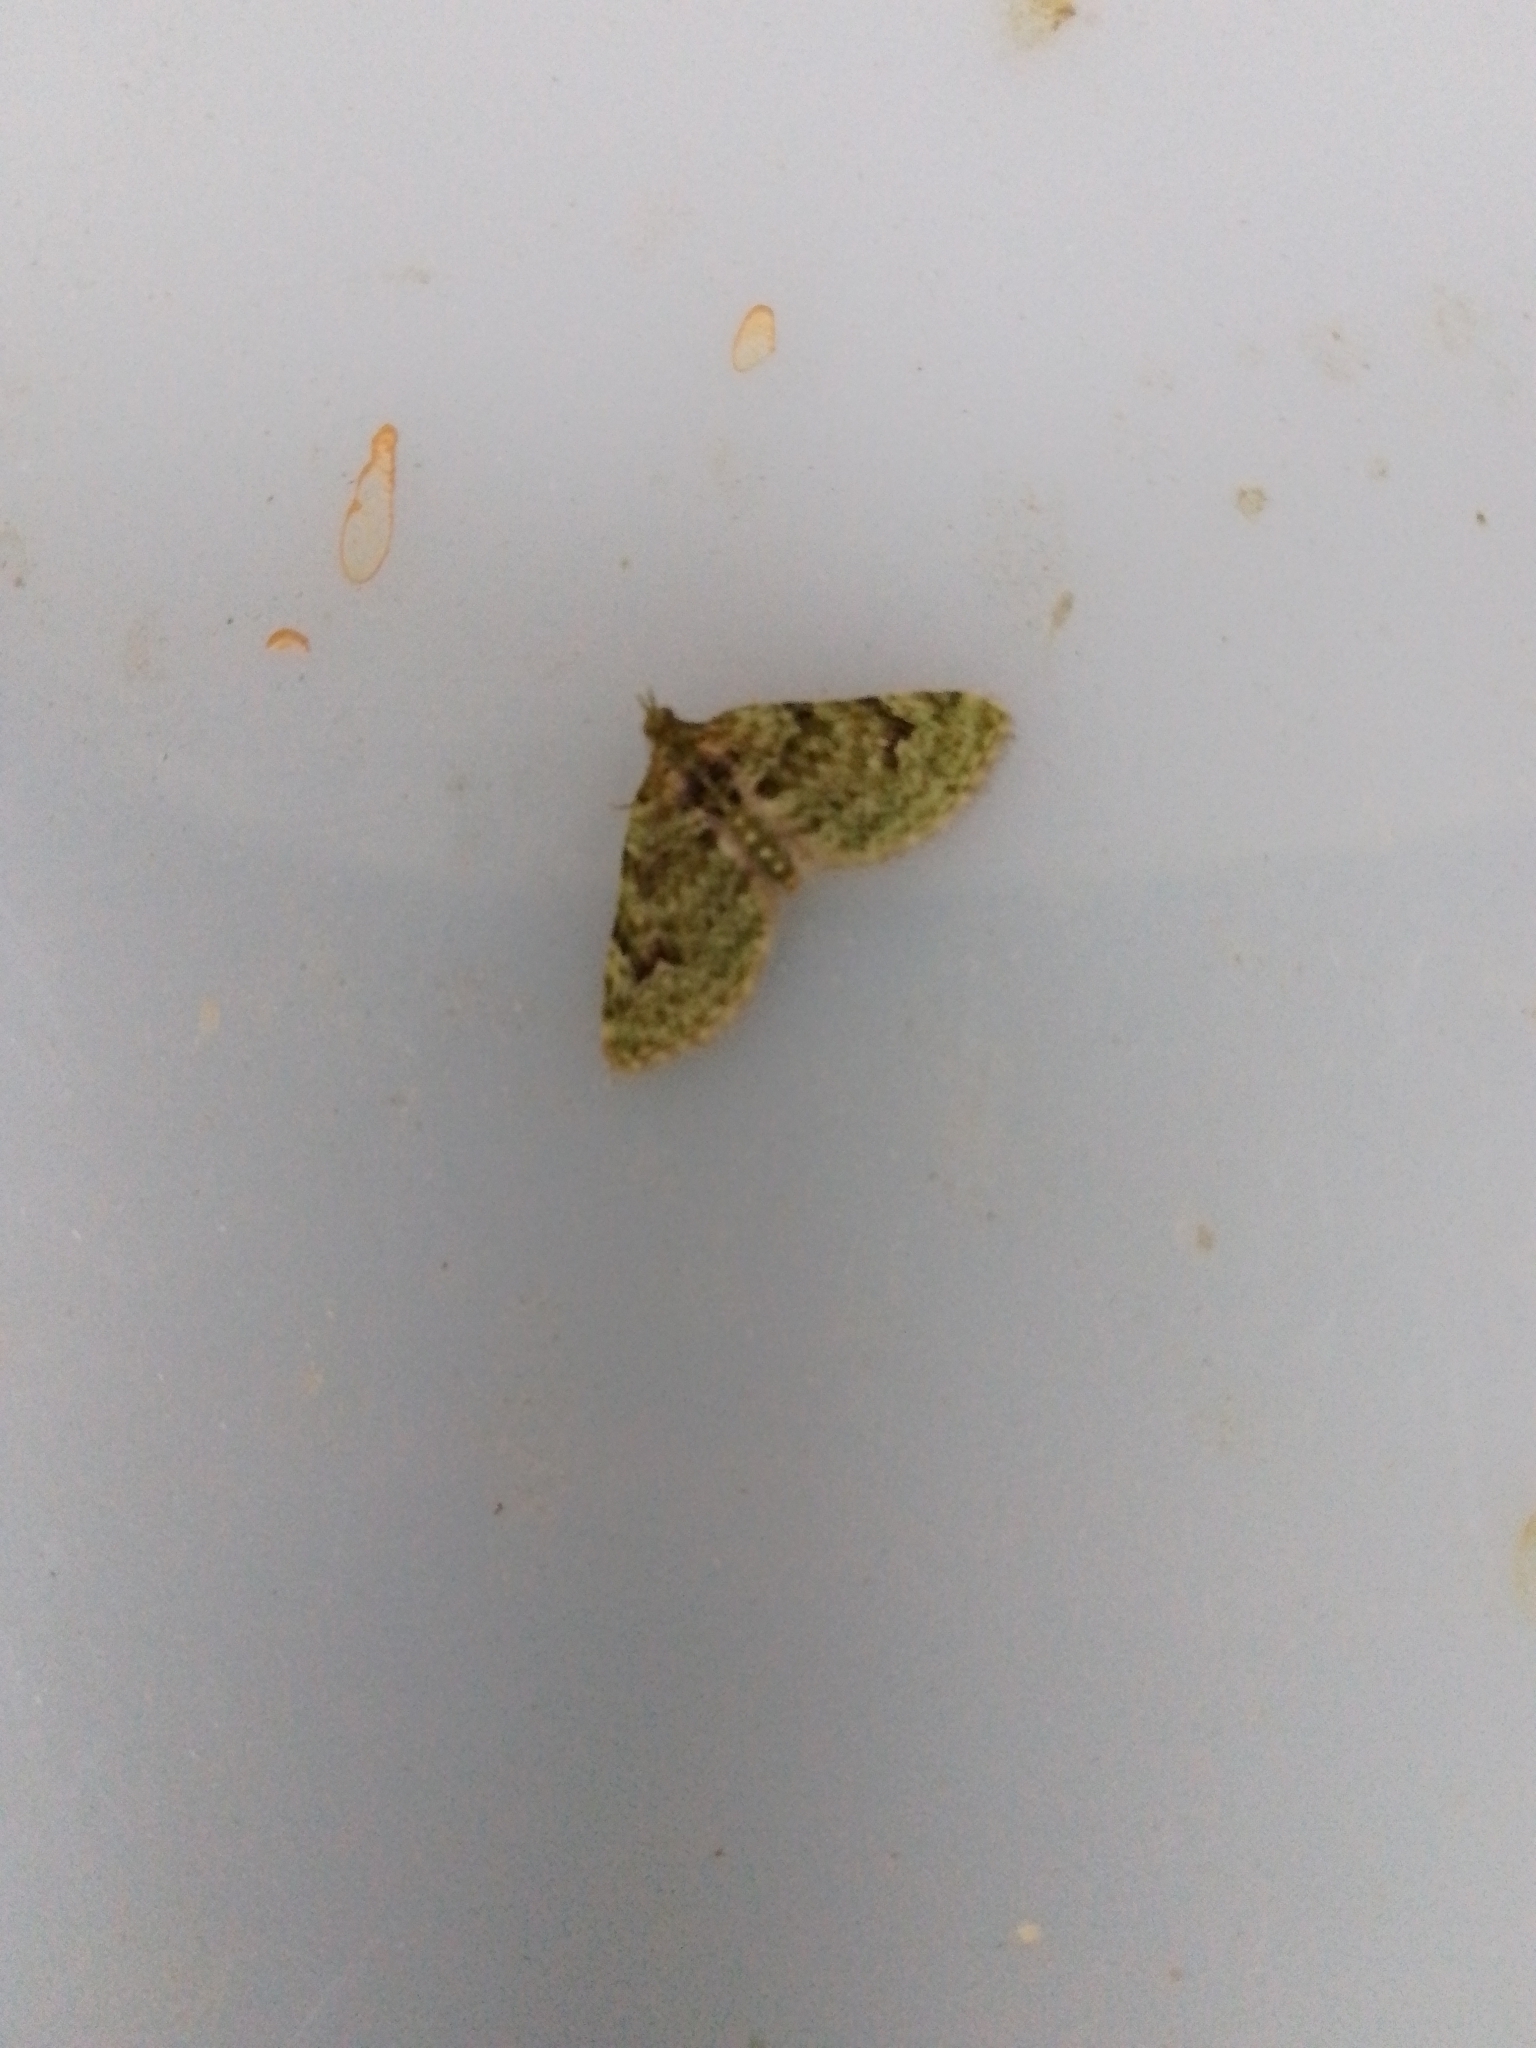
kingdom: Animalia
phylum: Arthropoda
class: Insecta
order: Lepidoptera
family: Geometridae
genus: Chloroclystis
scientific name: Chloroclystis v-ata
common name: V-pug
